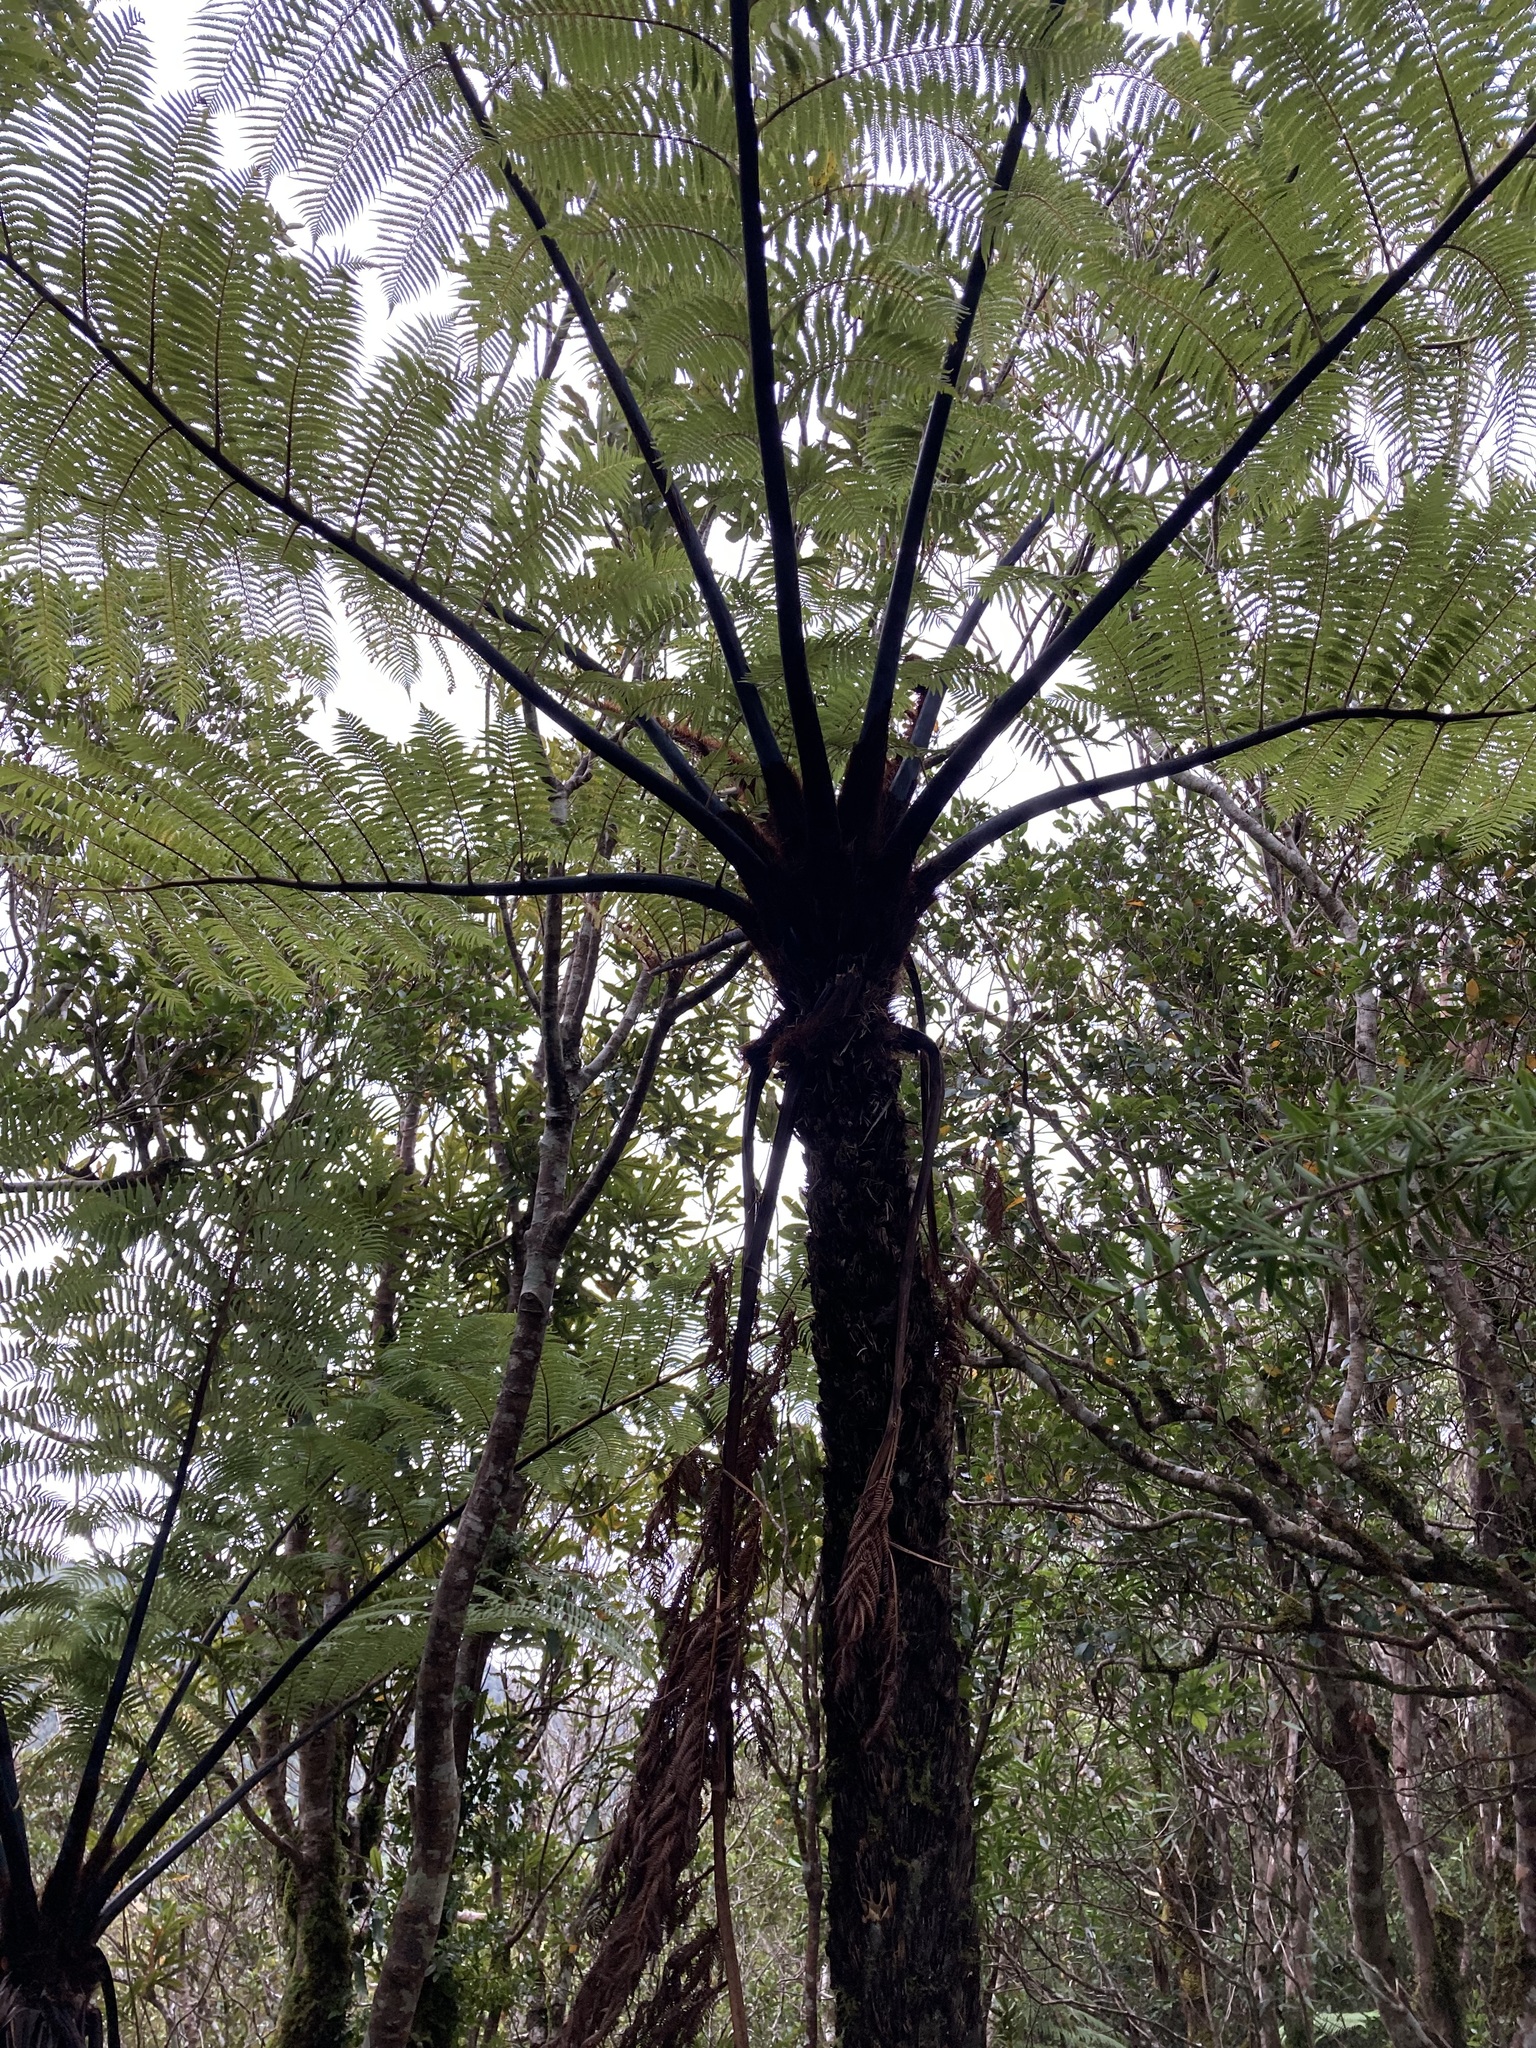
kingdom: Plantae
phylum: Tracheophyta
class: Polypodiopsida
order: Cyatheales
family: Cyatheaceae
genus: Sphaeropteris
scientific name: Sphaeropteris medullaris
